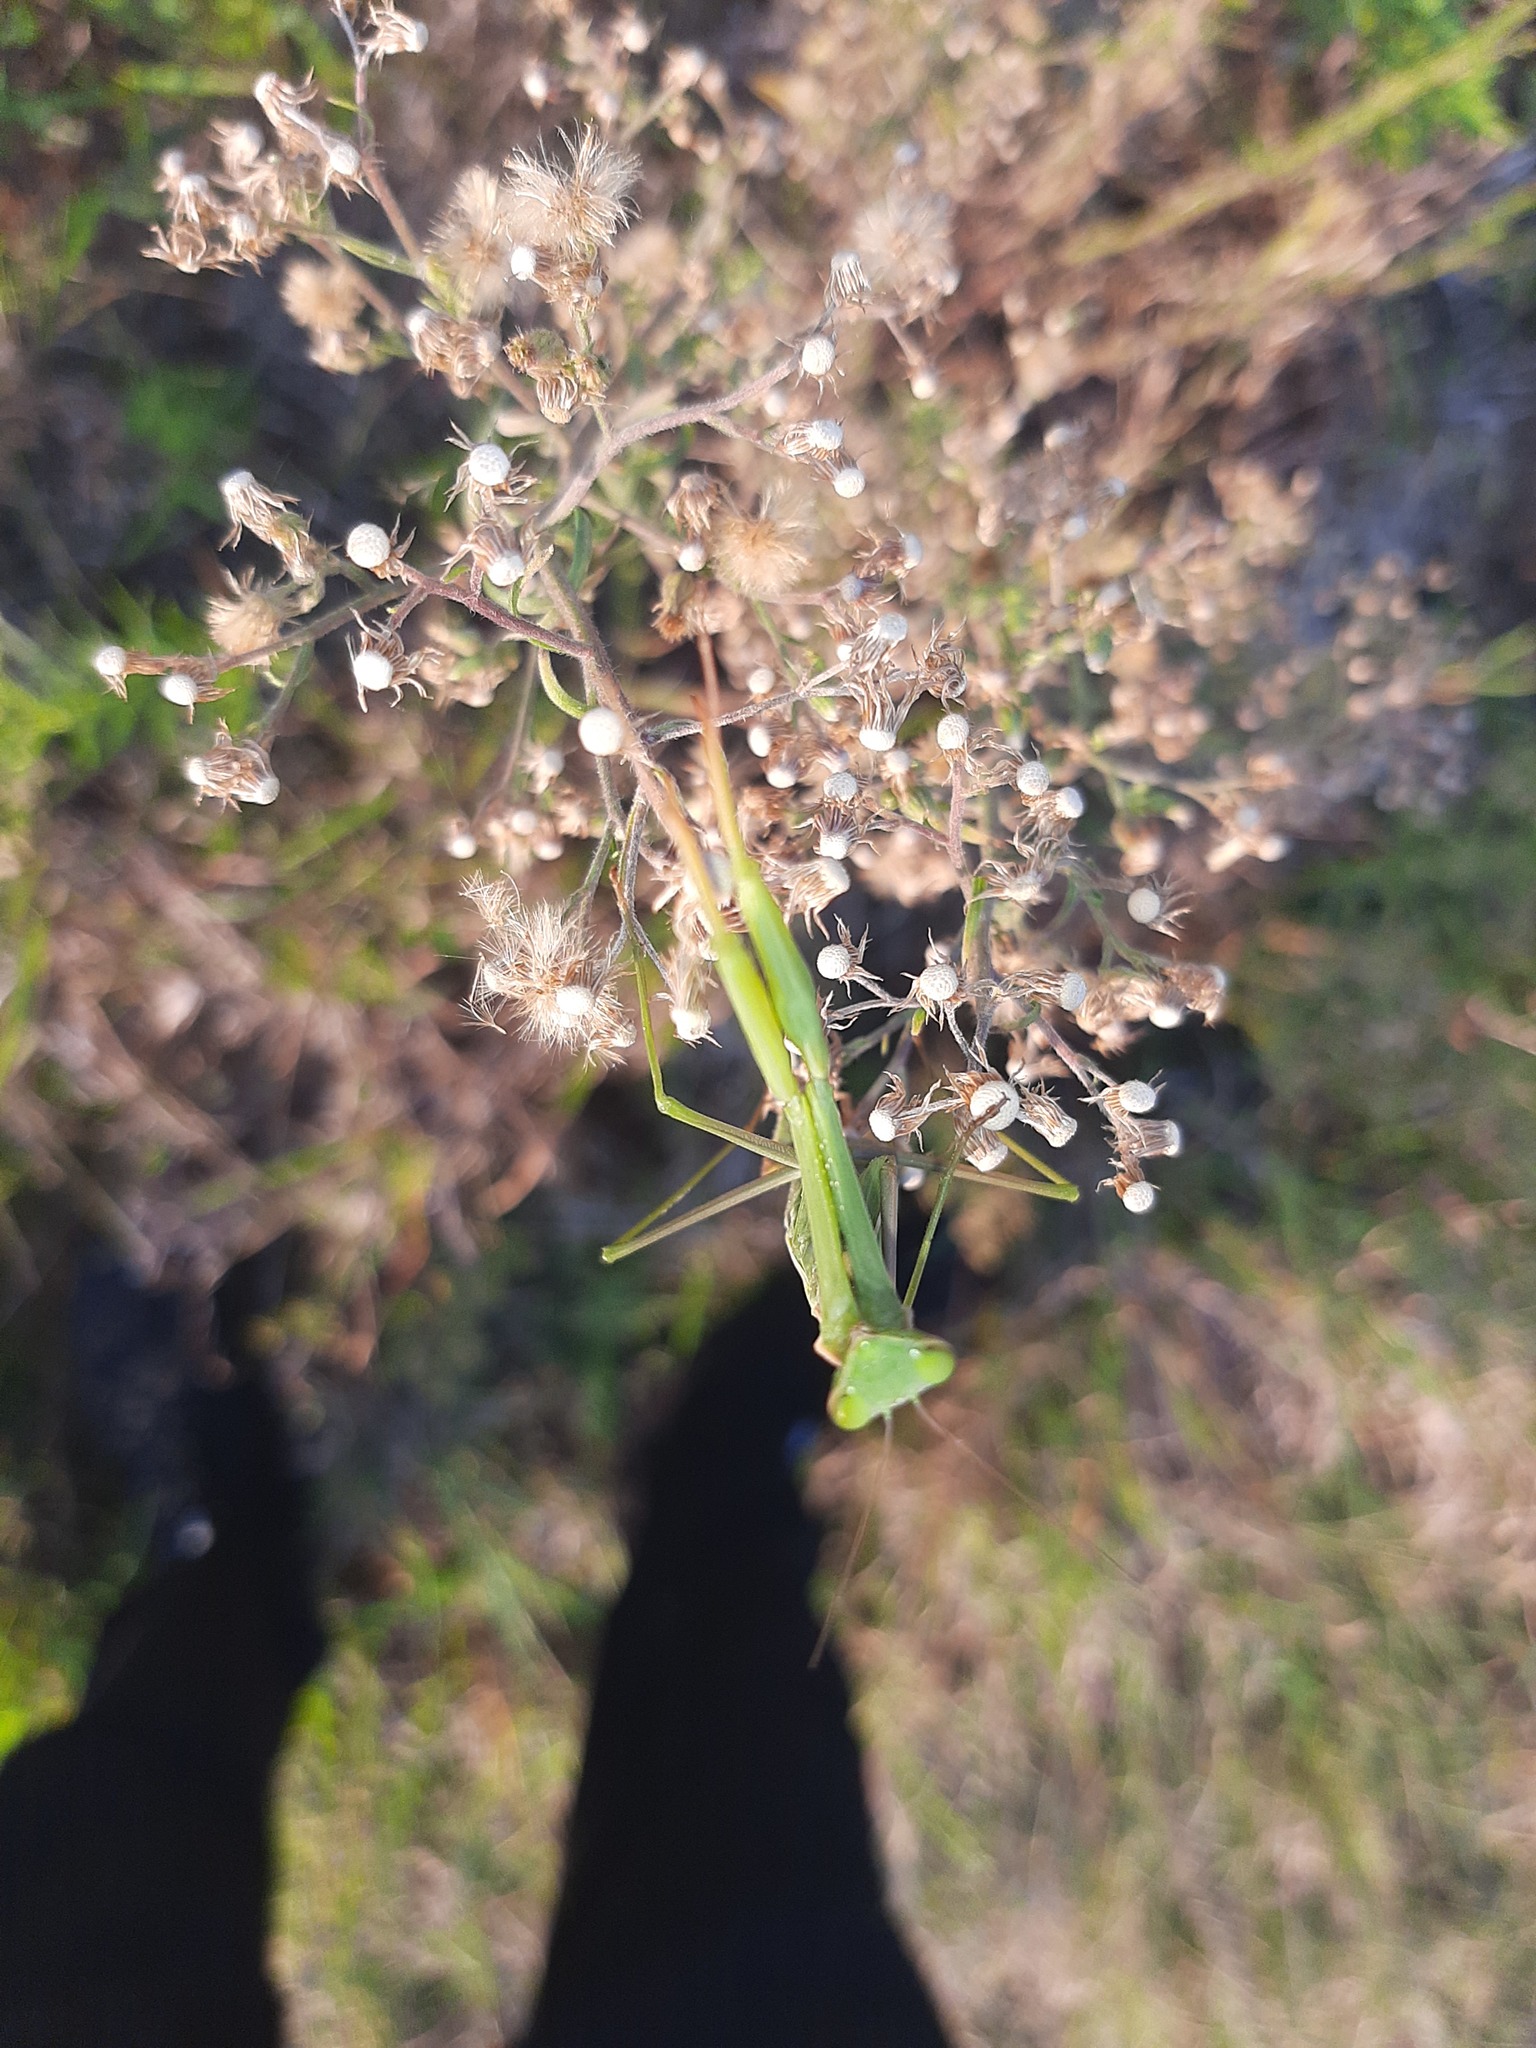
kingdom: Animalia
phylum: Arthropoda
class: Insecta
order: Mantodea
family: Mantidae
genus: Mantis
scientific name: Mantis religiosa
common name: Praying mantis
